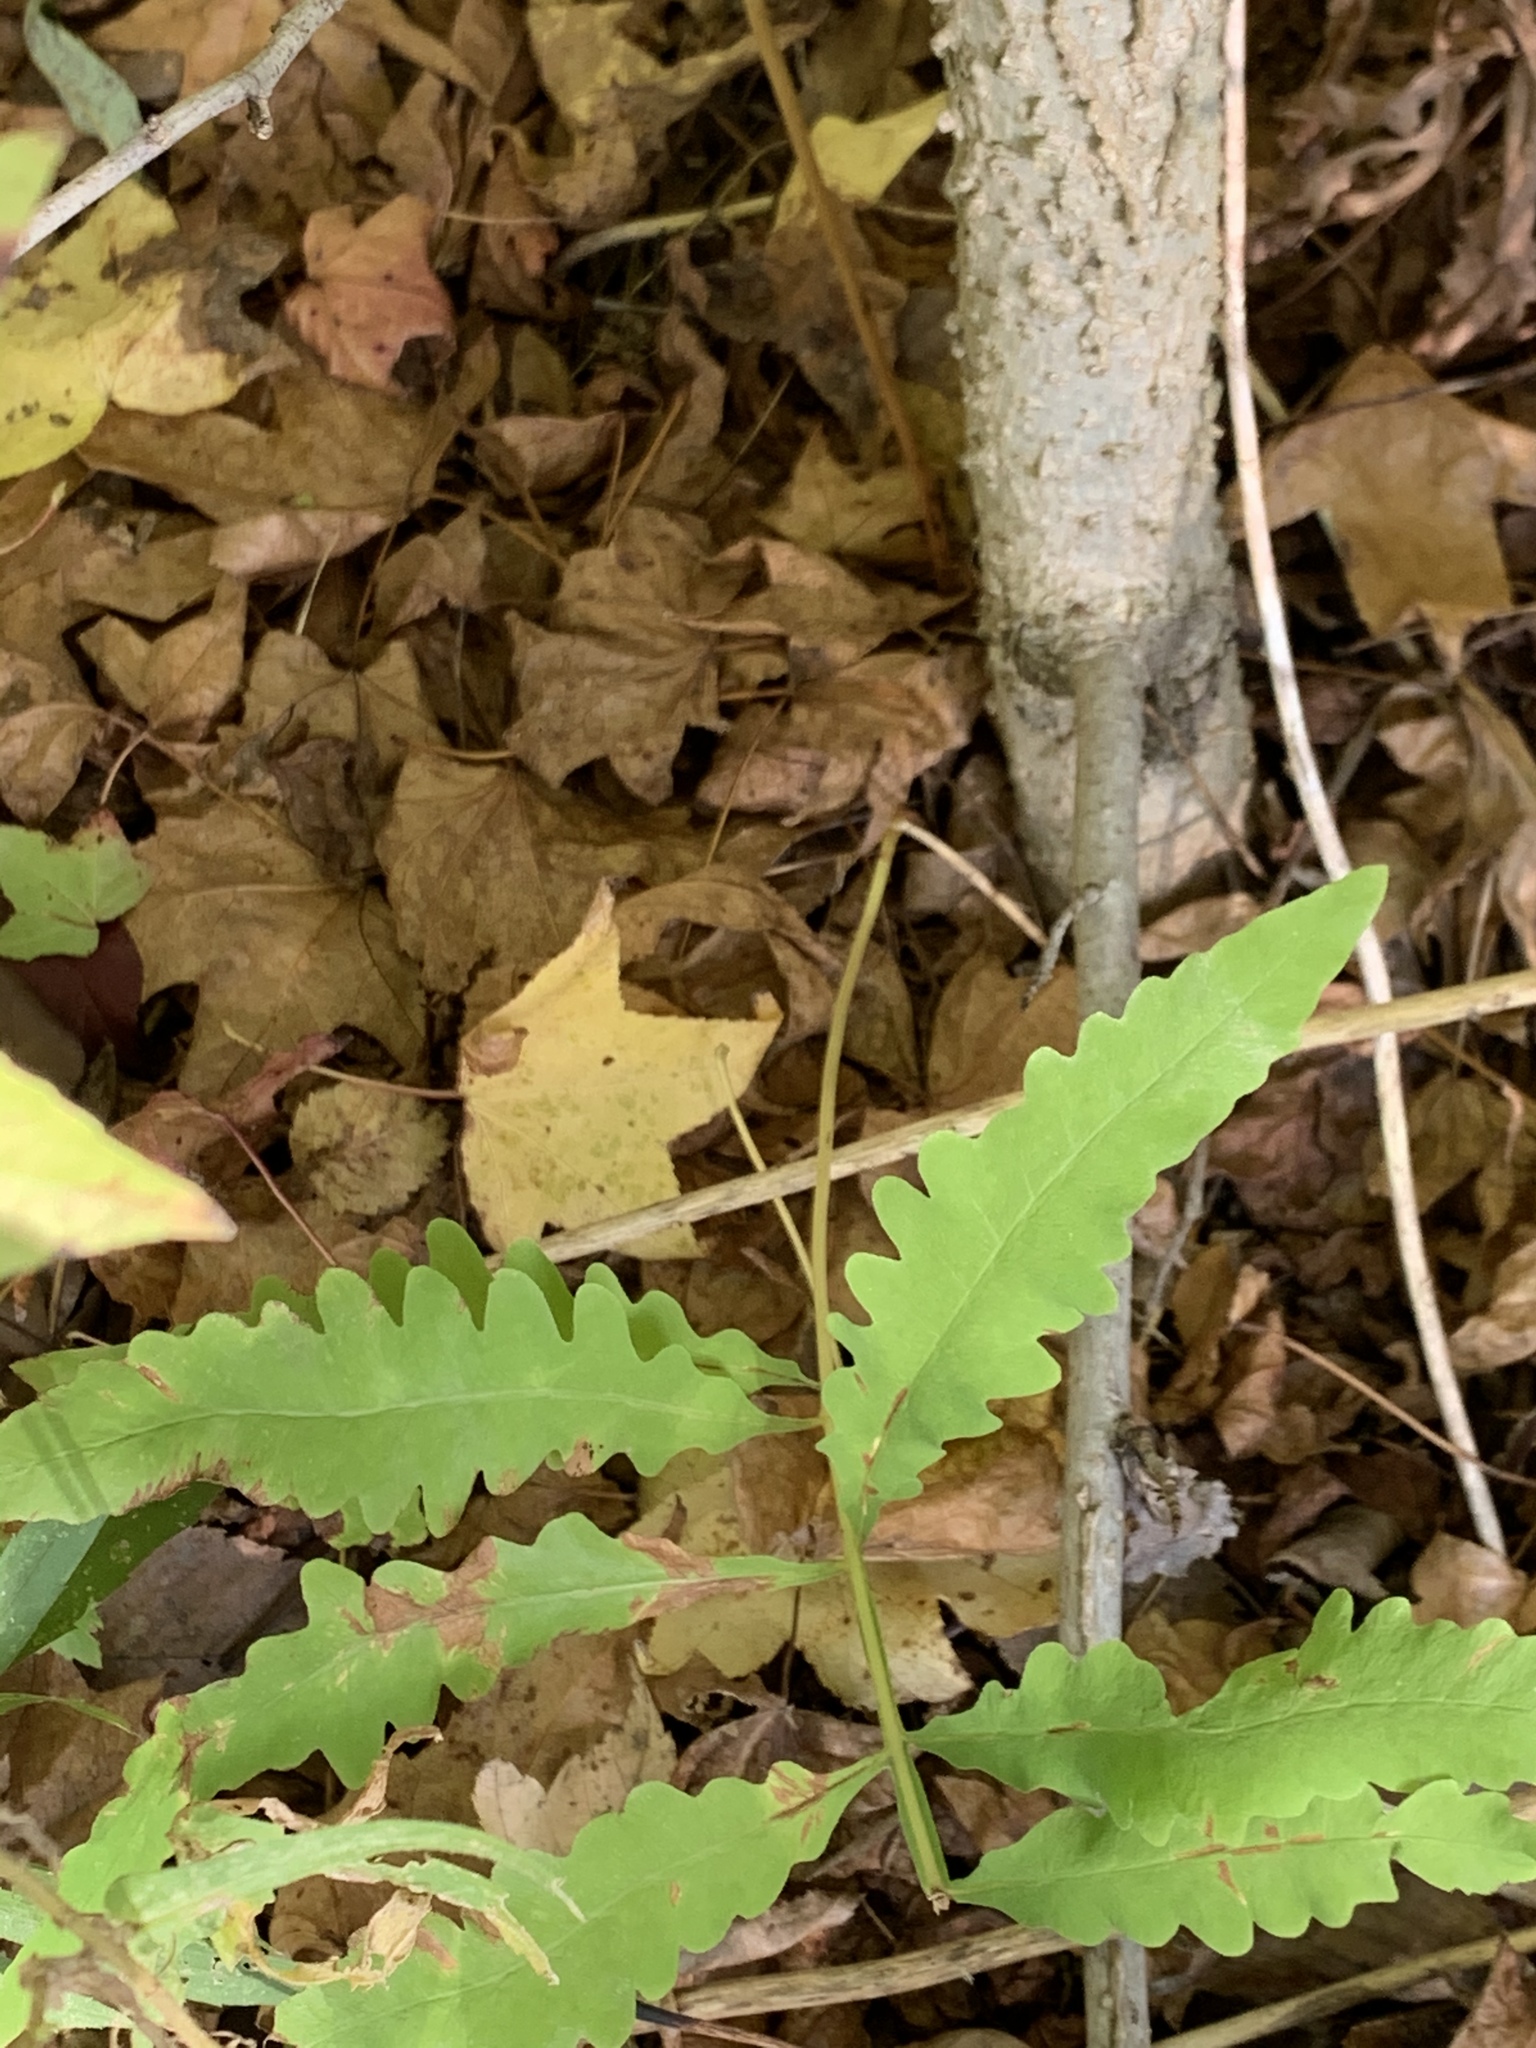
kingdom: Plantae
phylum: Tracheophyta
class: Polypodiopsida
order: Polypodiales
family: Onocleaceae
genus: Onoclea
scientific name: Onoclea sensibilis
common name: Sensitive fern
